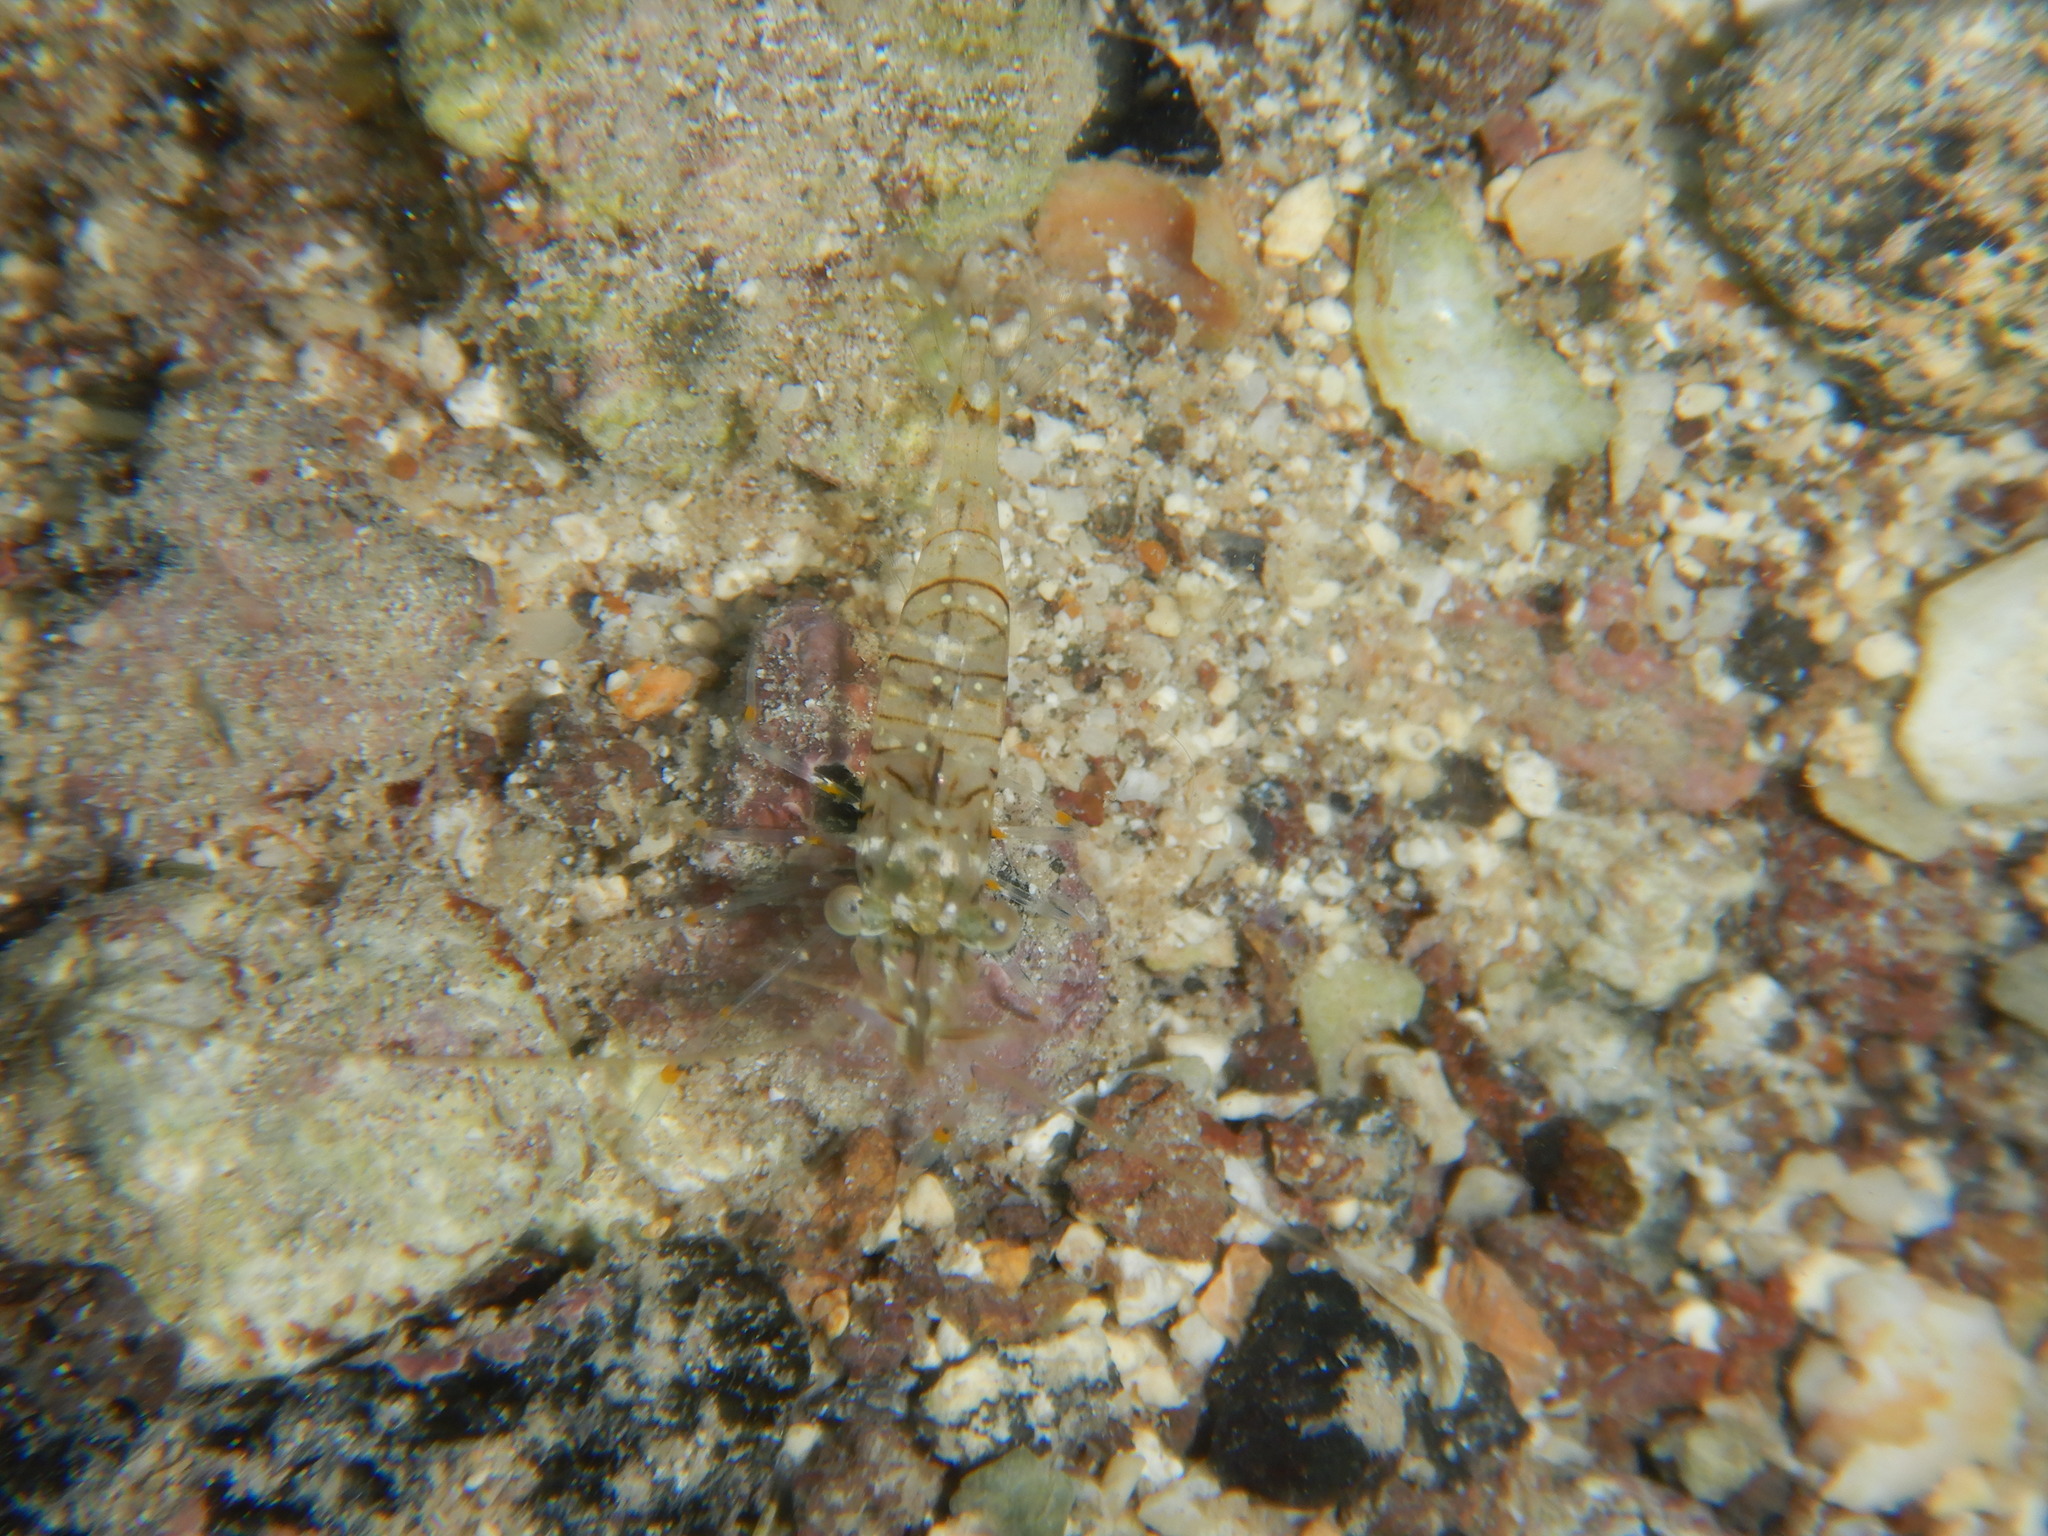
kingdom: Animalia
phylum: Arthropoda
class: Malacostraca
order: Decapoda
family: Palaemonidae
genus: Palaemon
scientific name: Palaemon elegans
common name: Grass prawm
